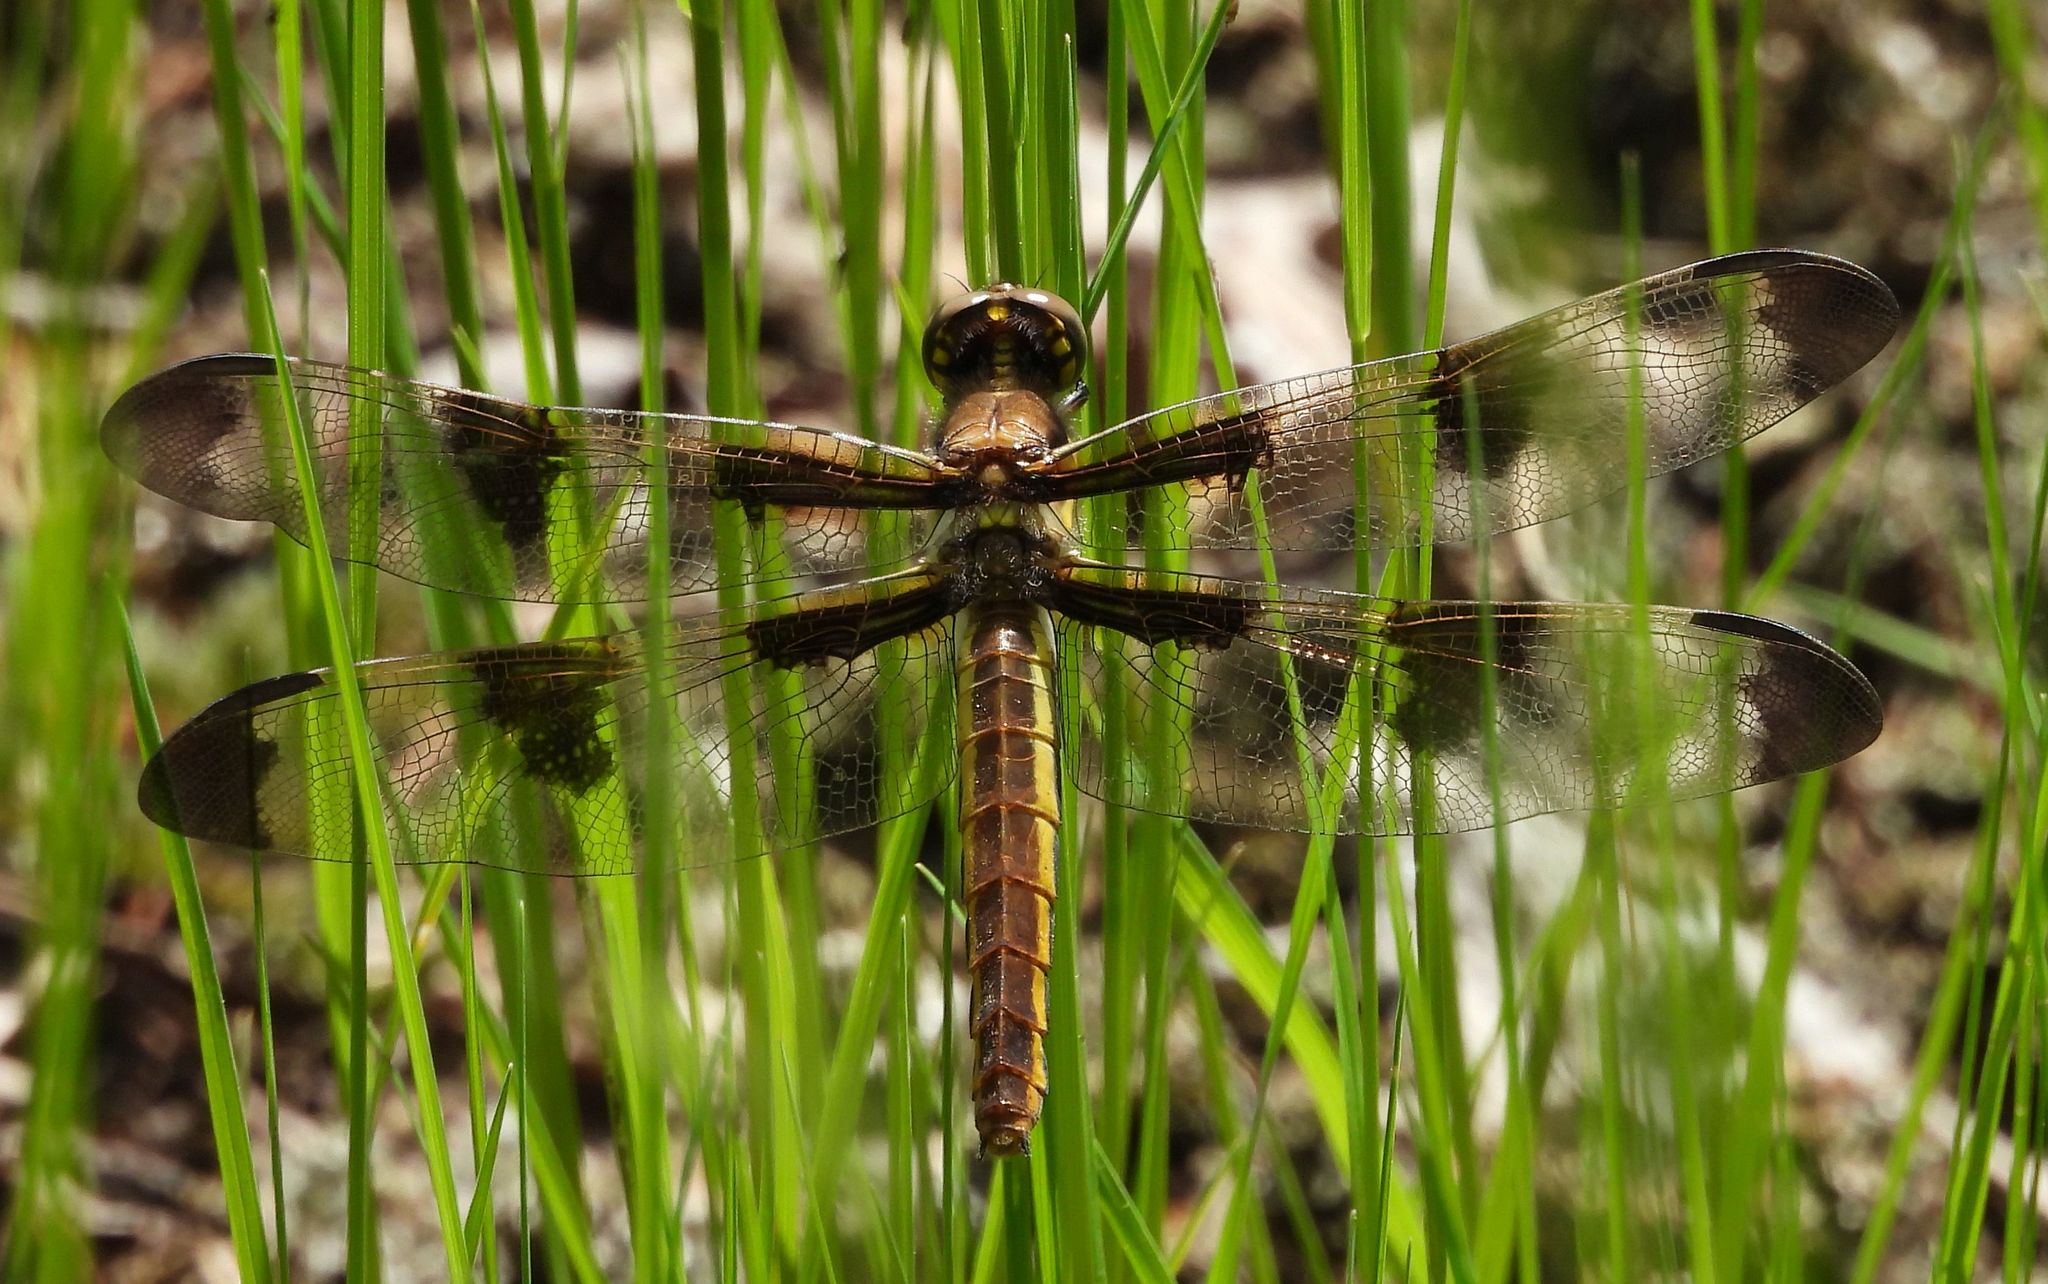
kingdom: Animalia
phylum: Arthropoda
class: Insecta
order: Odonata
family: Libellulidae
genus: Libellula
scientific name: Libellula pulchella
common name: Twelve-spotted skimmer
